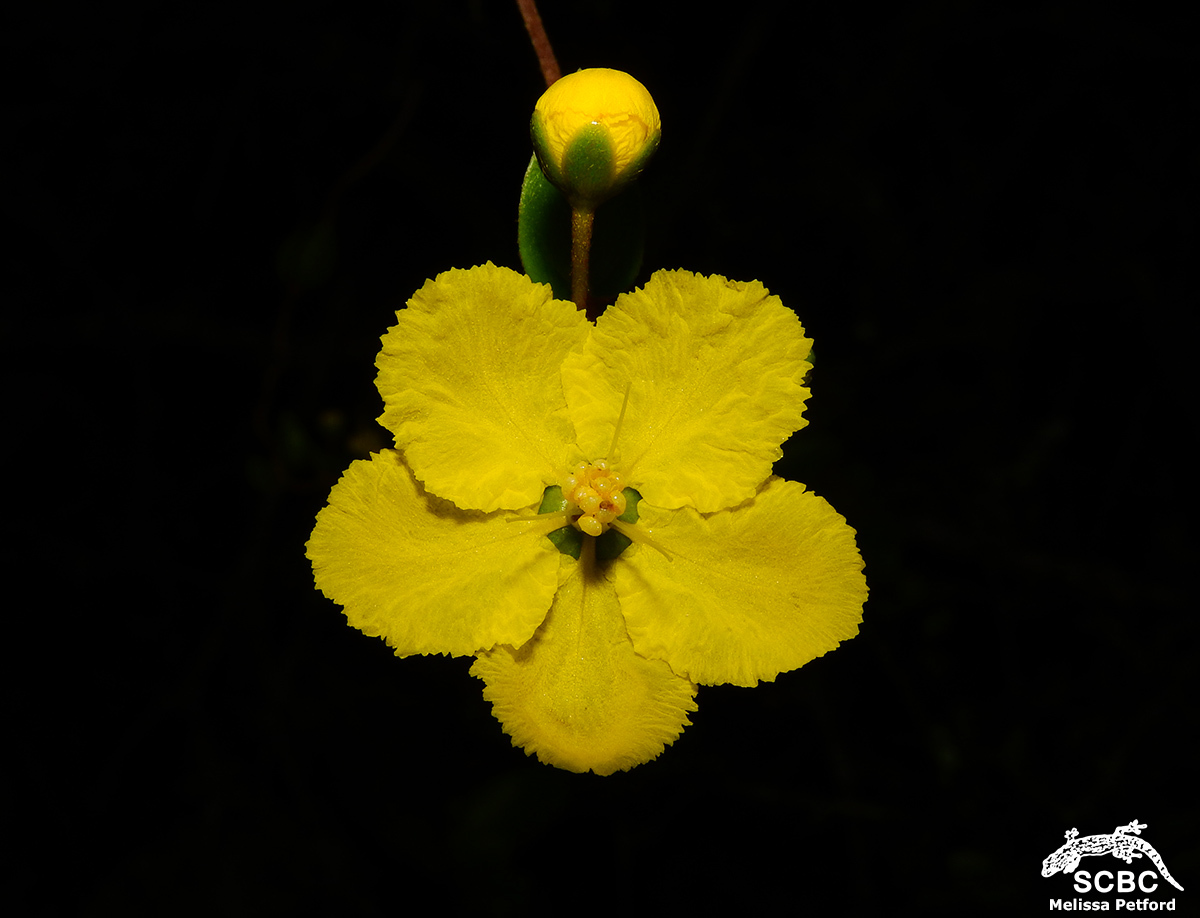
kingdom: Plantae
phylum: Tracheophyta
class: Magnoliopsida
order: Malpighiales
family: Malpighiaceae
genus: Sphedamnocarpus
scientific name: Sphedamnocarpus pruriens
